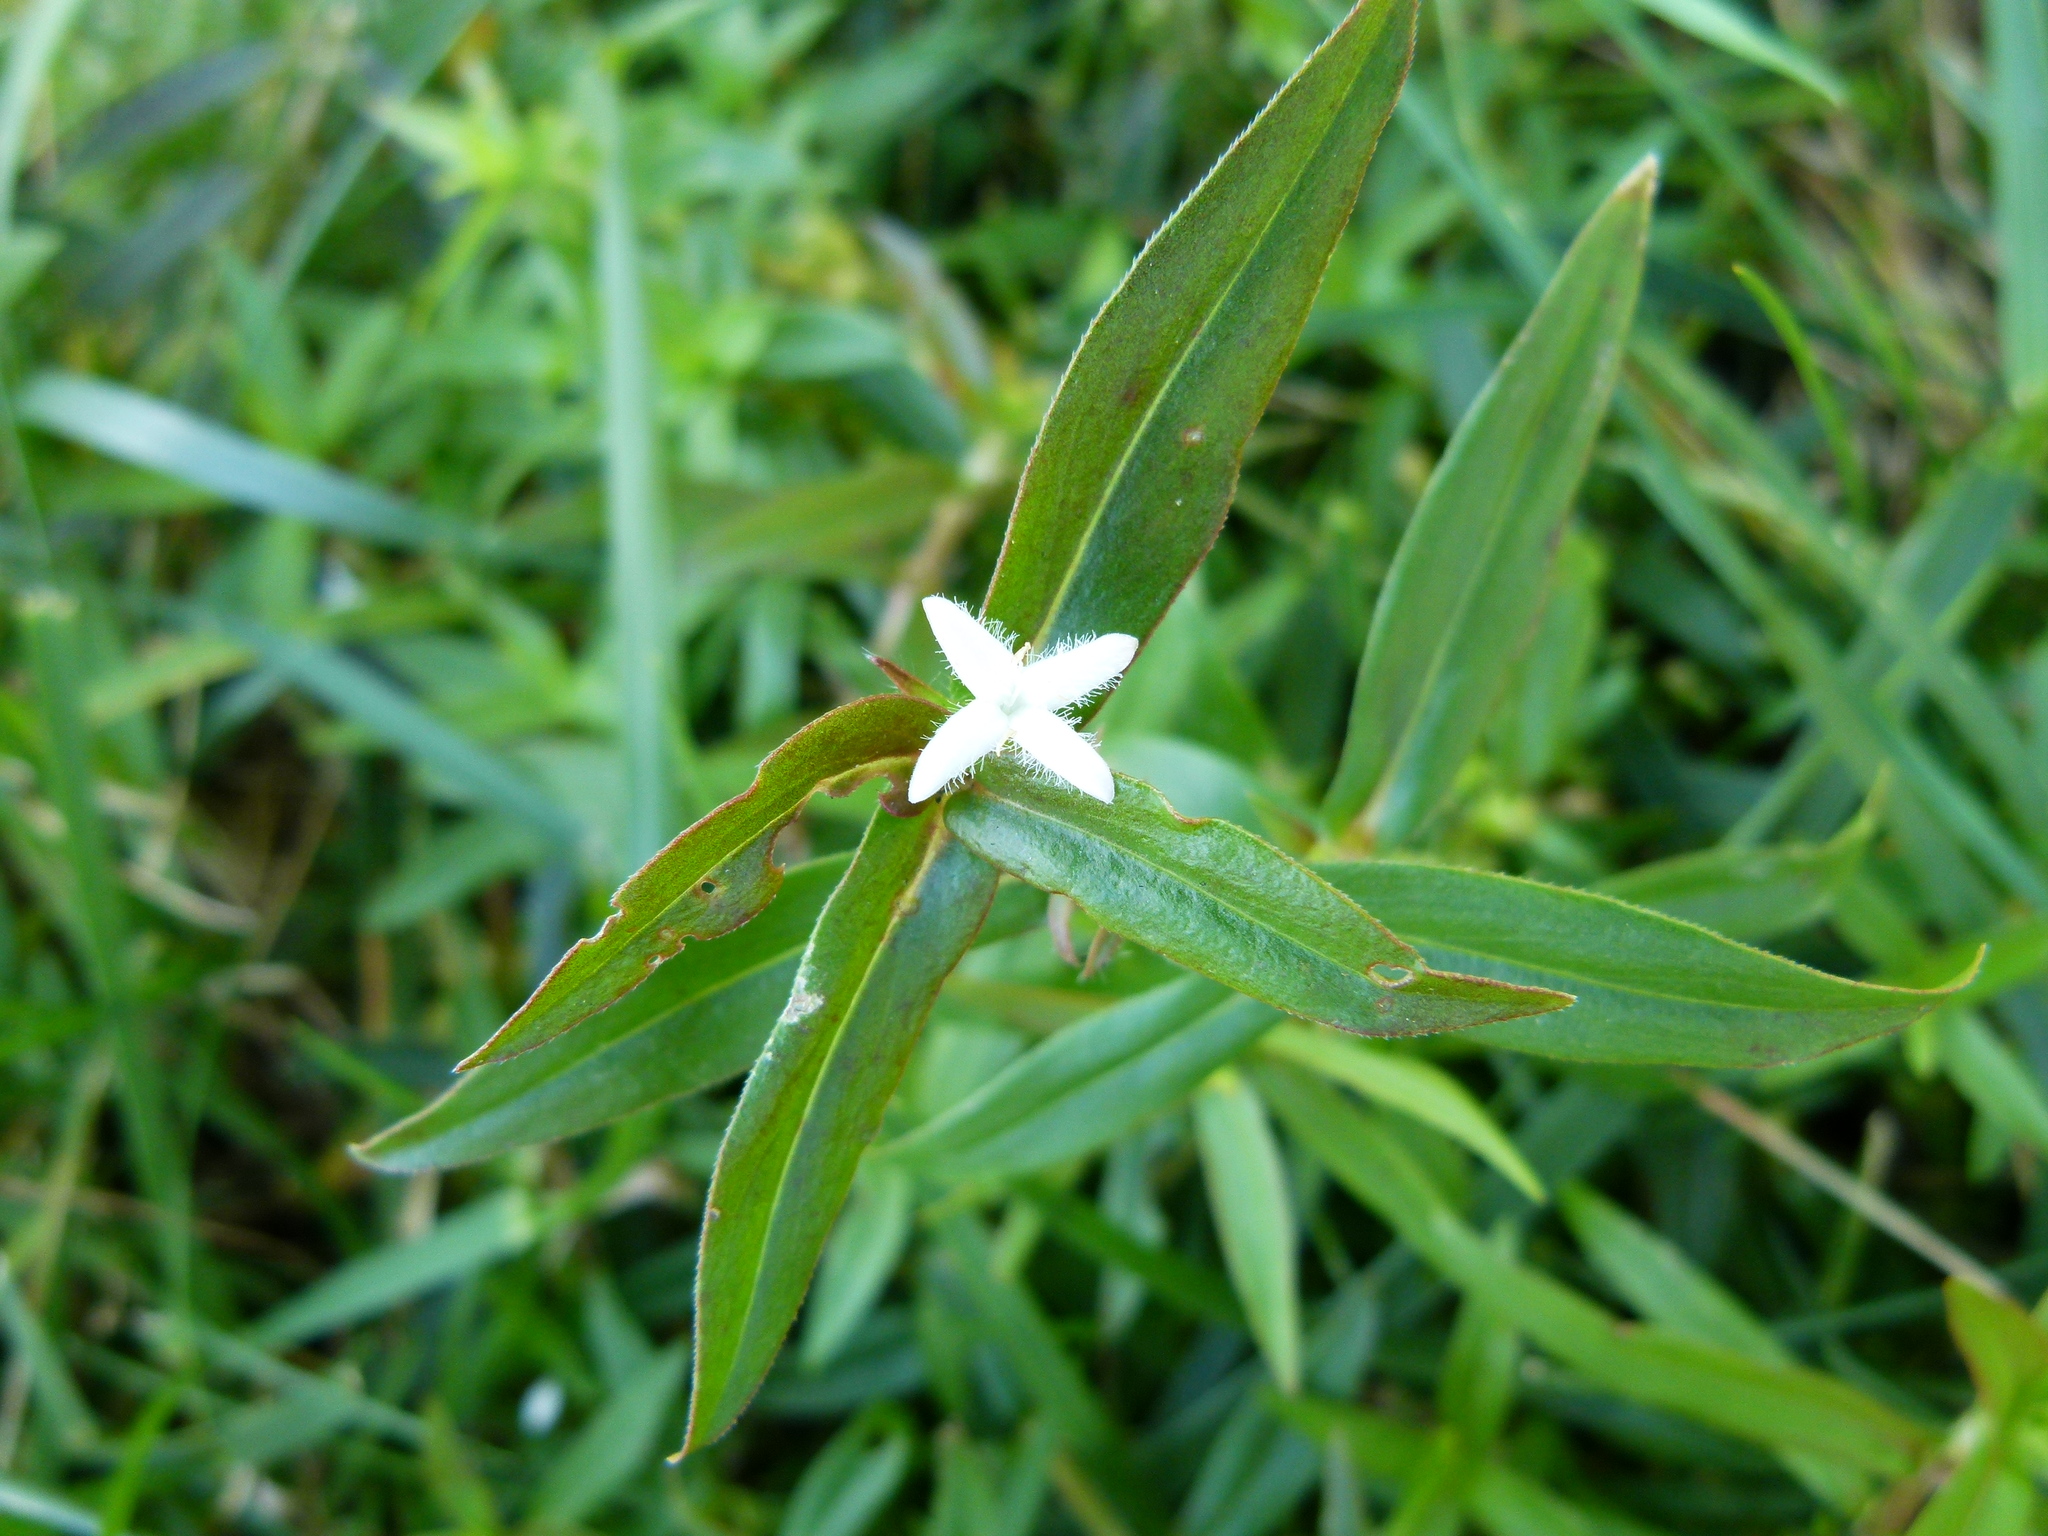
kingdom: Plantae
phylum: Tracheophyta
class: Magnoliopsida
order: Gentianales
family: Rubiaceae
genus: Diodia
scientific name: Diodia virginiana
